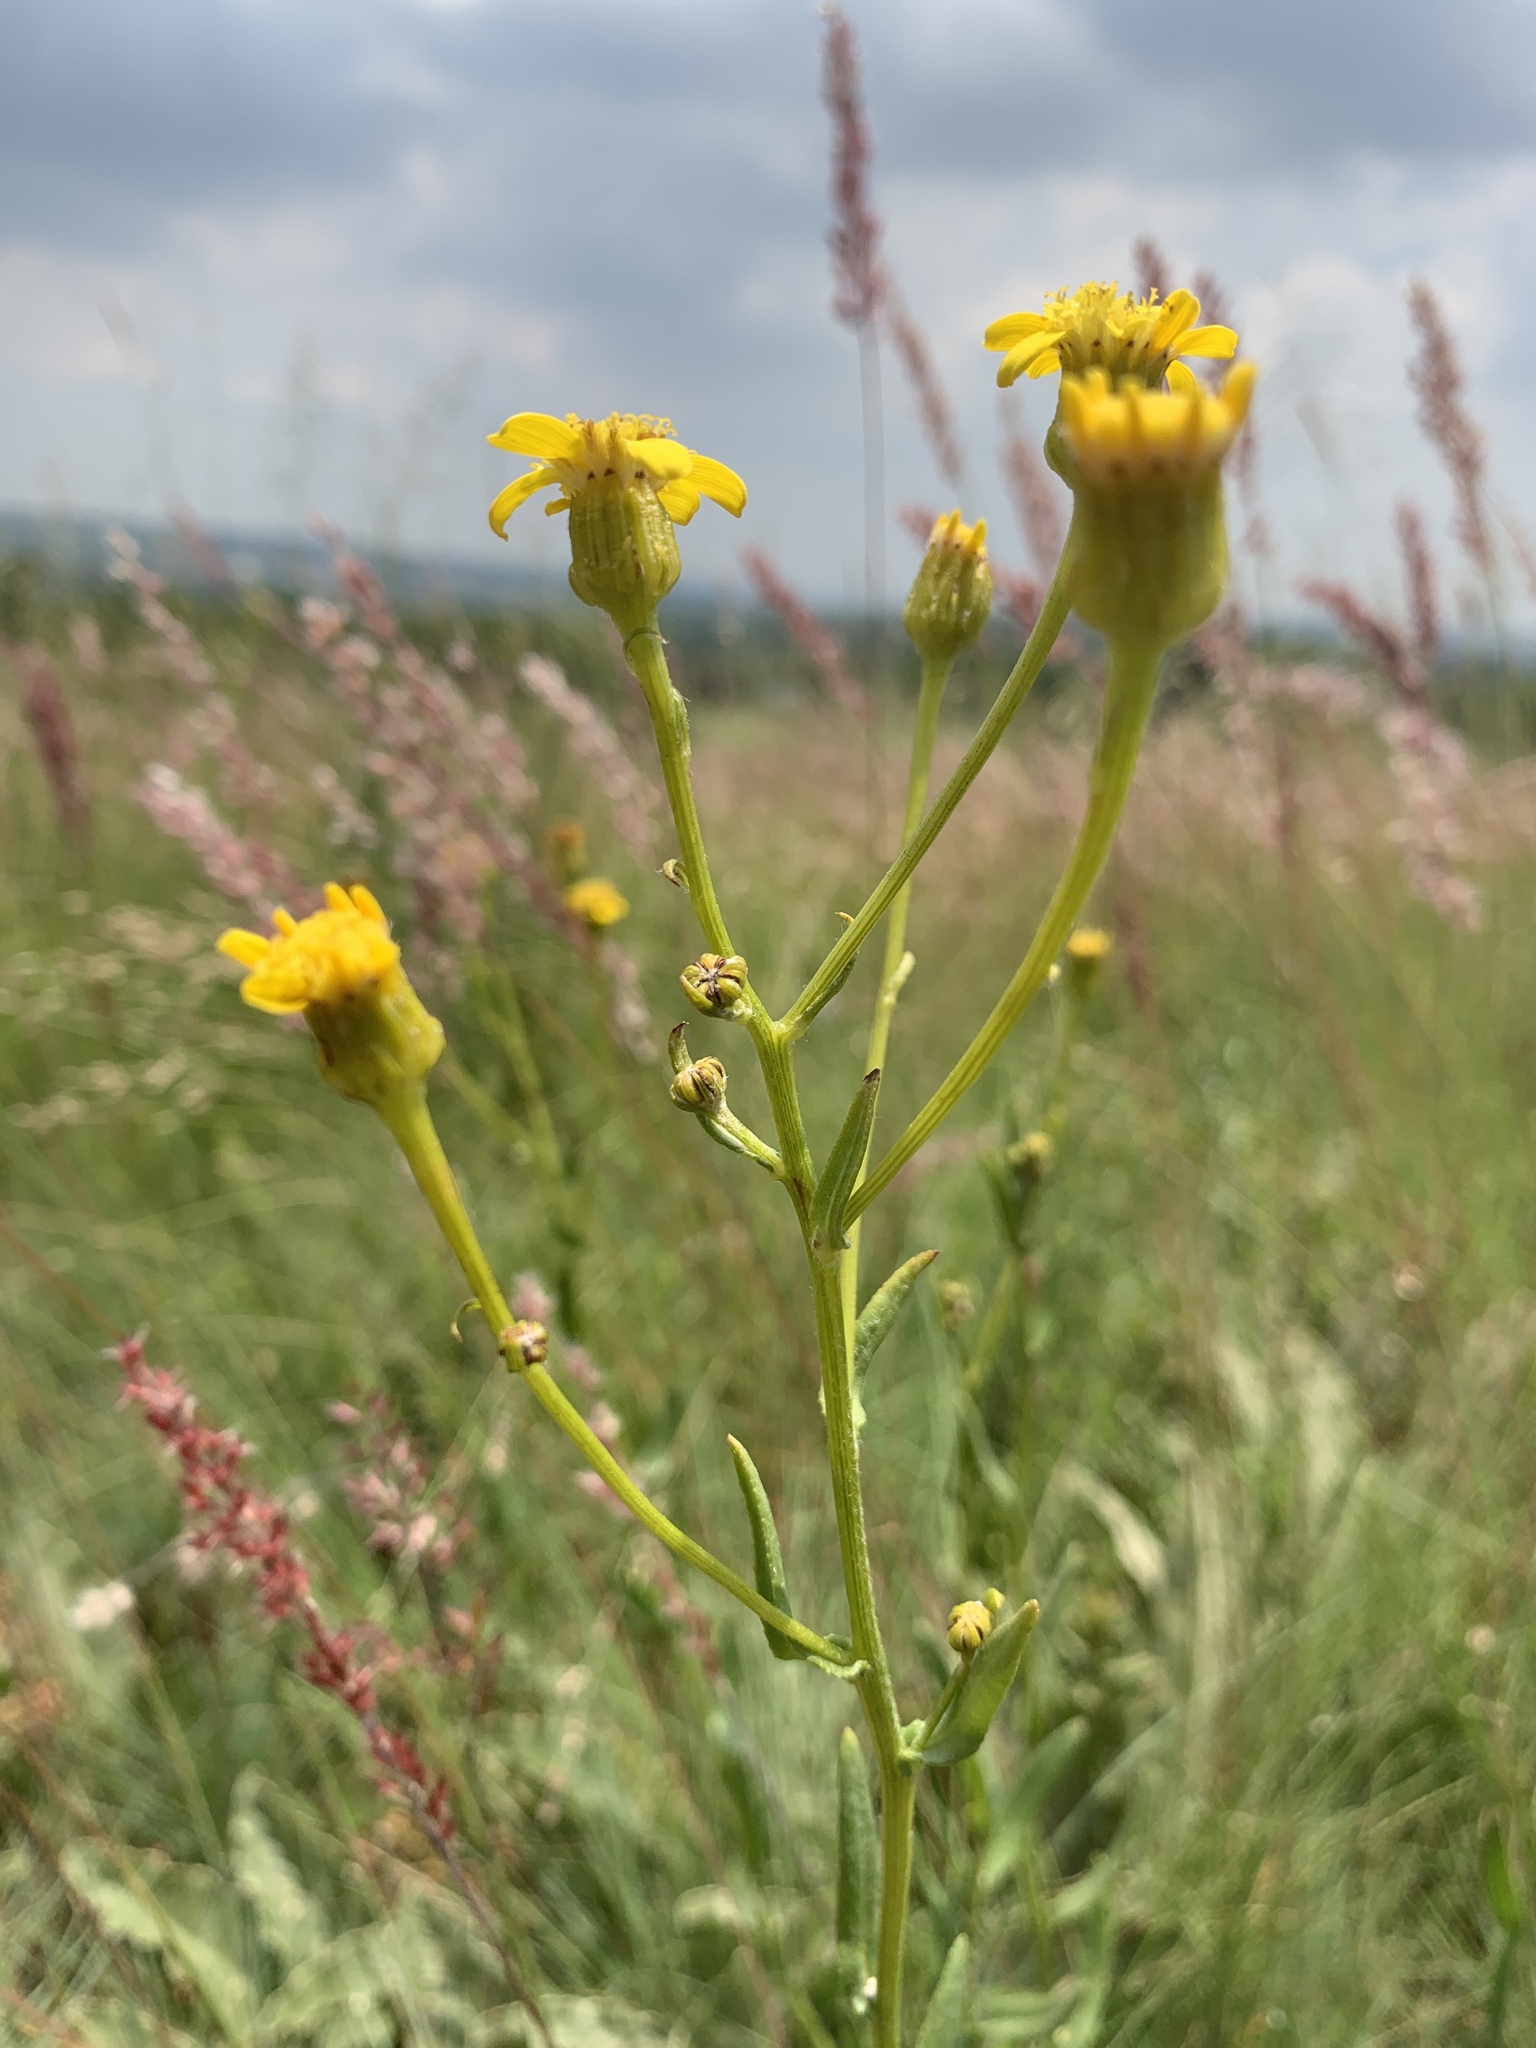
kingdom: Plantae
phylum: Tracheophyta
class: Magnoliopsida
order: Asterales
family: Asteraceae
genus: Senecio
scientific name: Senecio inornatus
